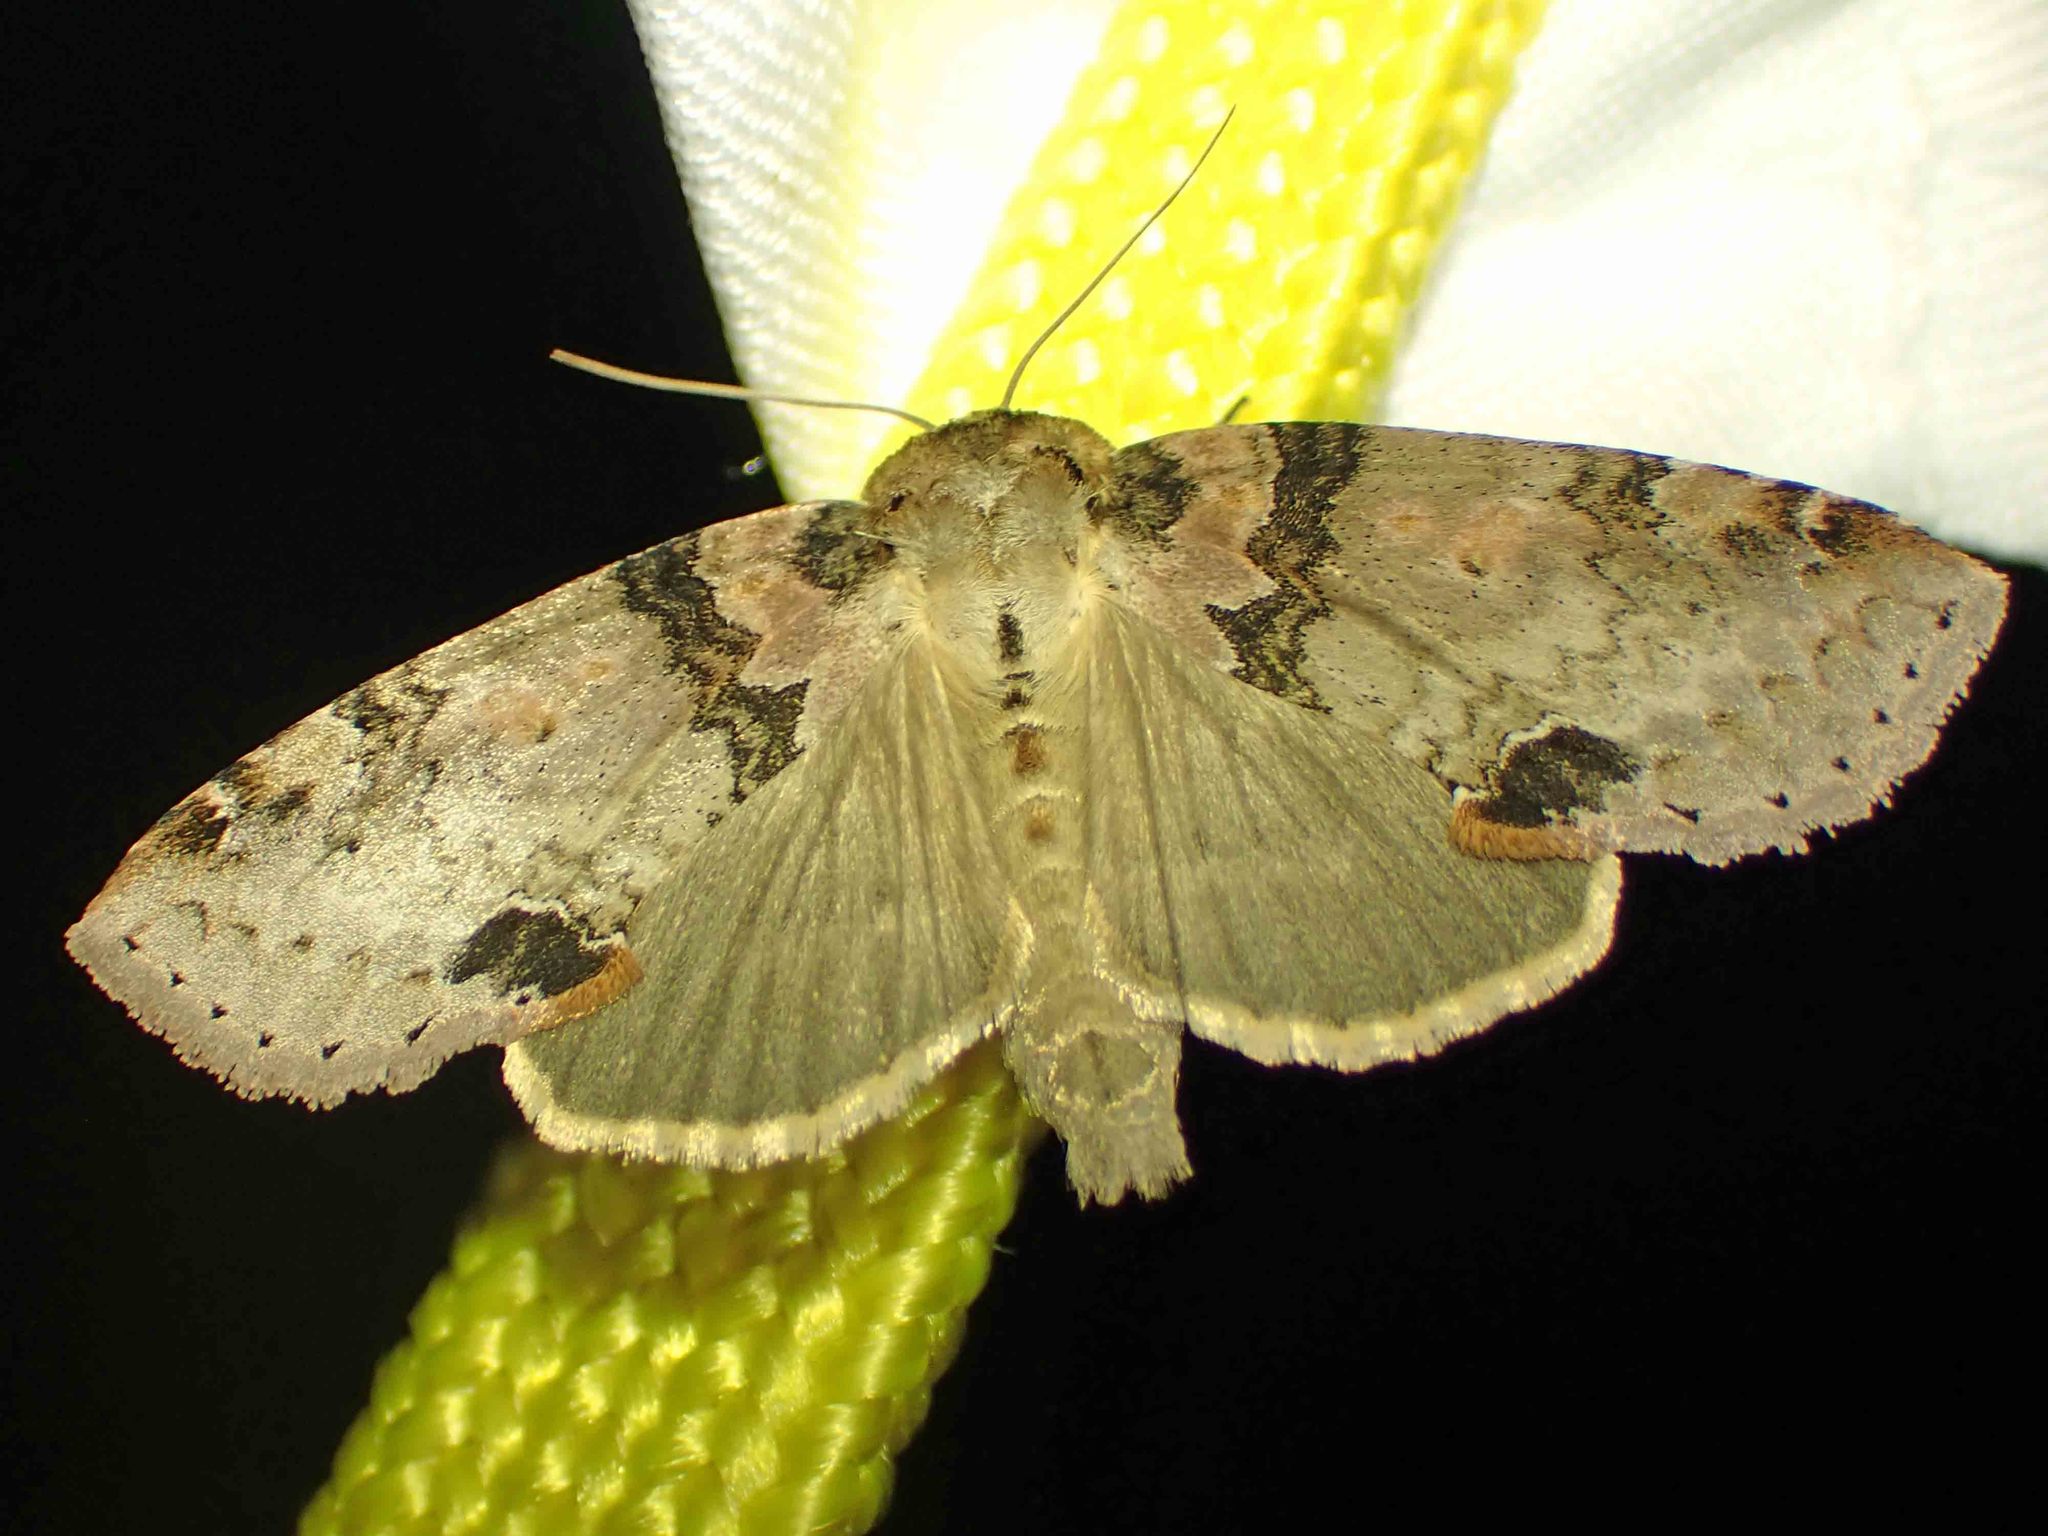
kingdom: Animalia
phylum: Arthropoda
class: Insecta
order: Lepidoptera
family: Drepanidae
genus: Pseudothyatira
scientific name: Pseudothyatira cymatophoroides
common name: Tufted thyatirid moth
